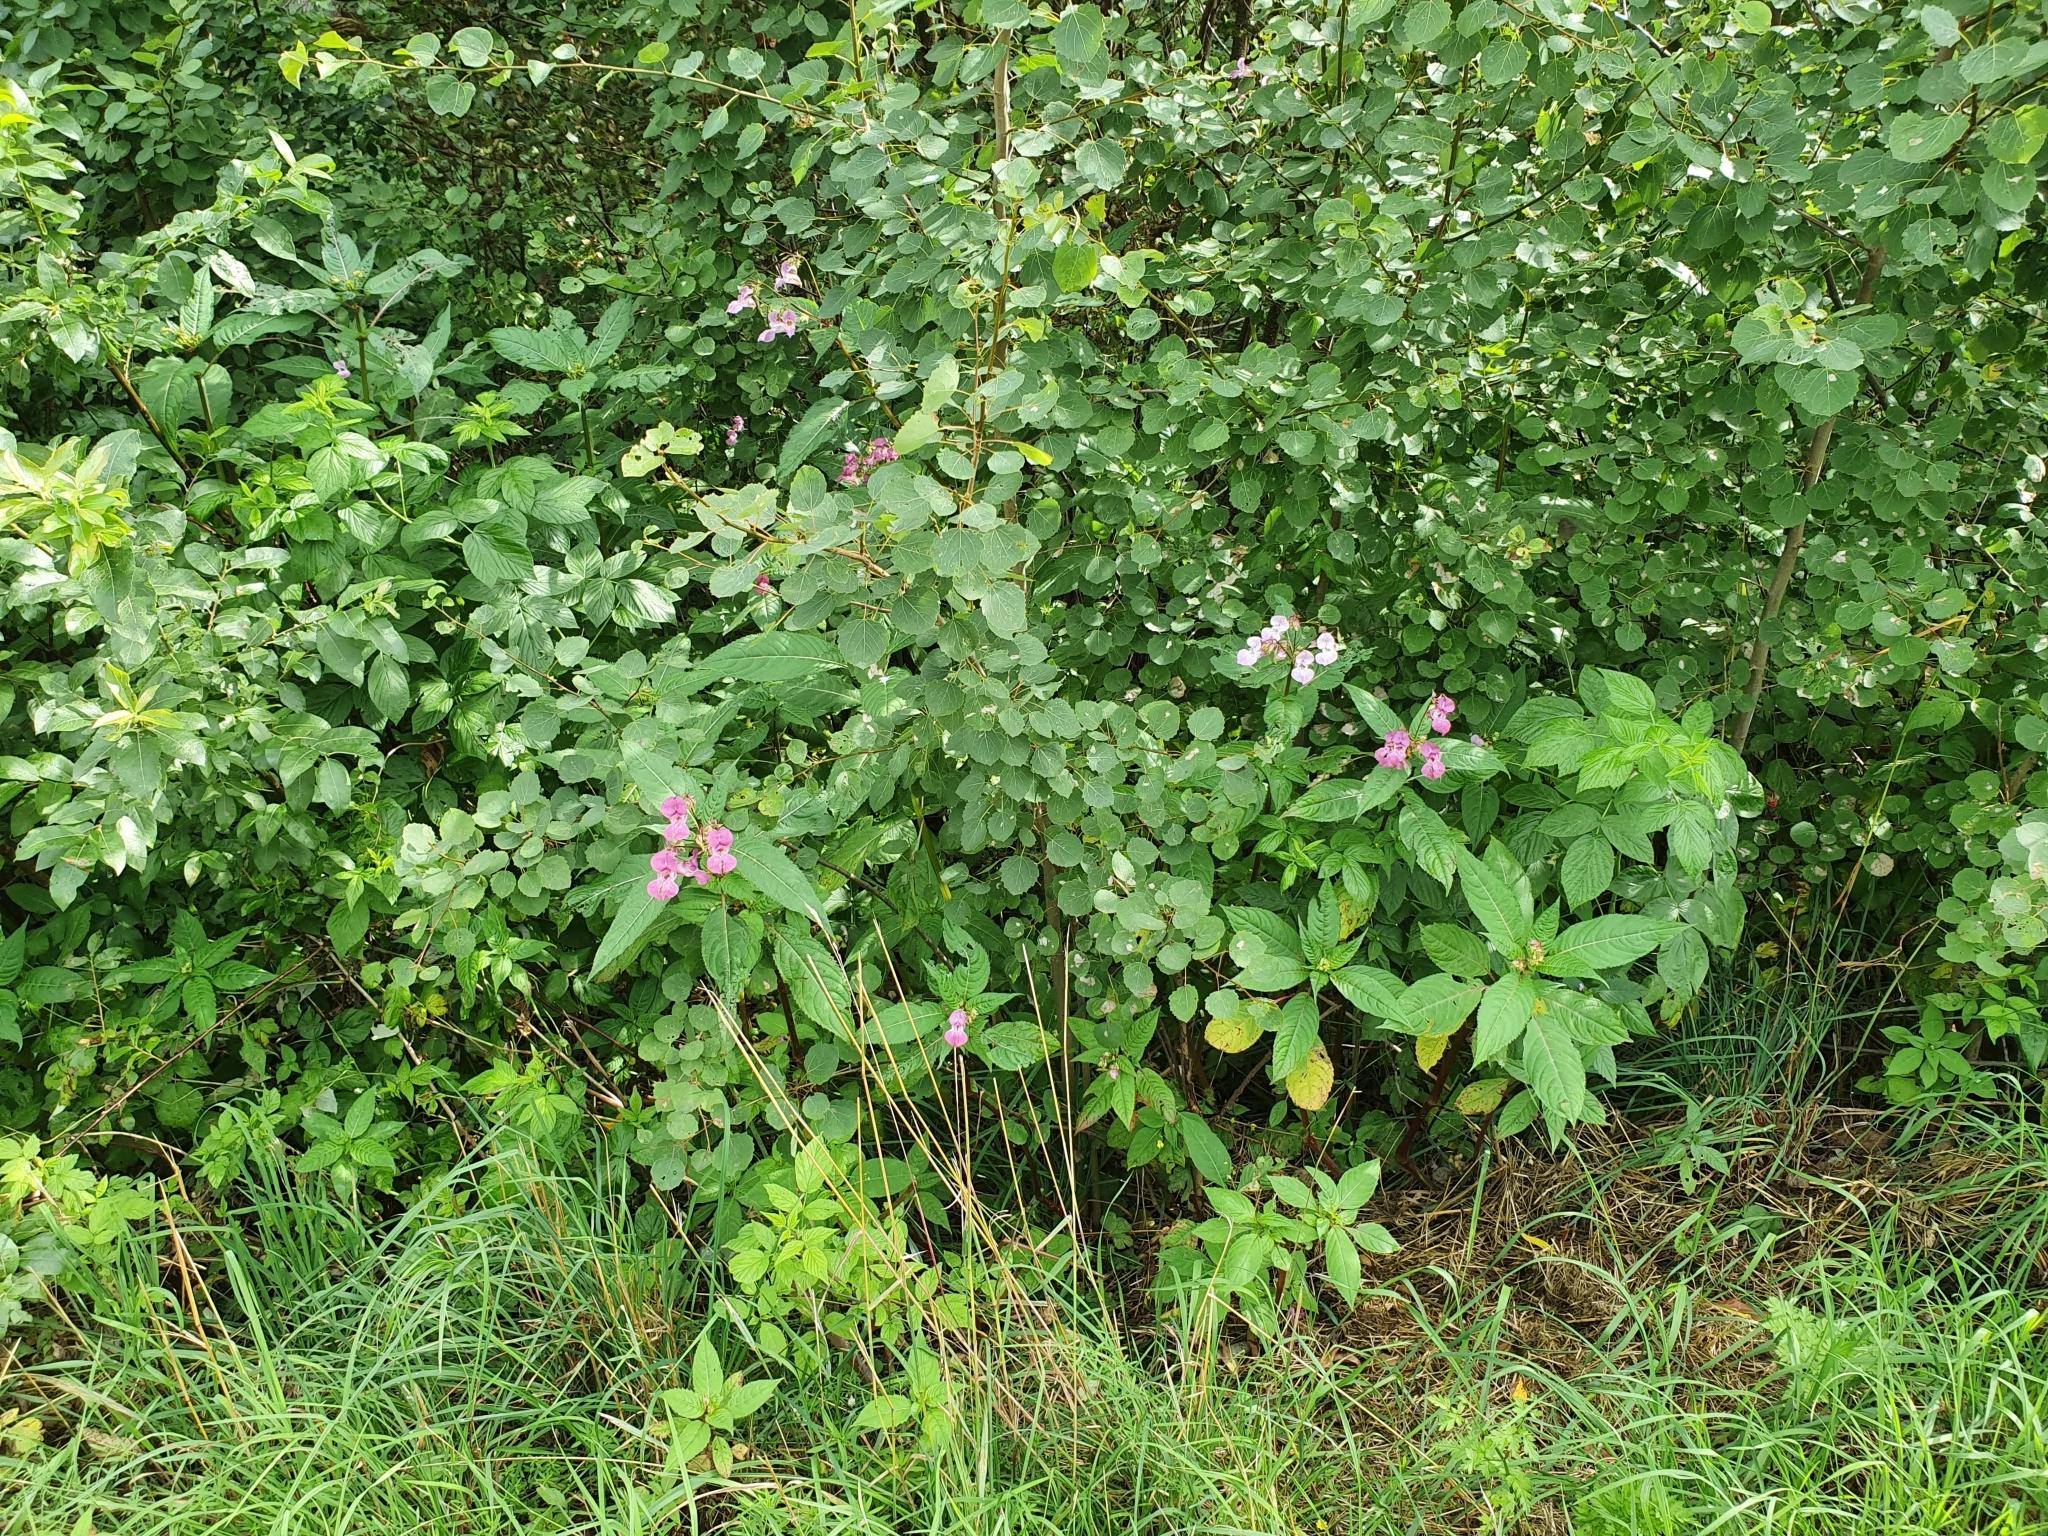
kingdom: Plantae
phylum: Tracheophyta
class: Magnoliopsida
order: Ericales
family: Balsaminaceae
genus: Impatiens
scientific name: Impatiens glandulifera
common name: Himalayan balsam
